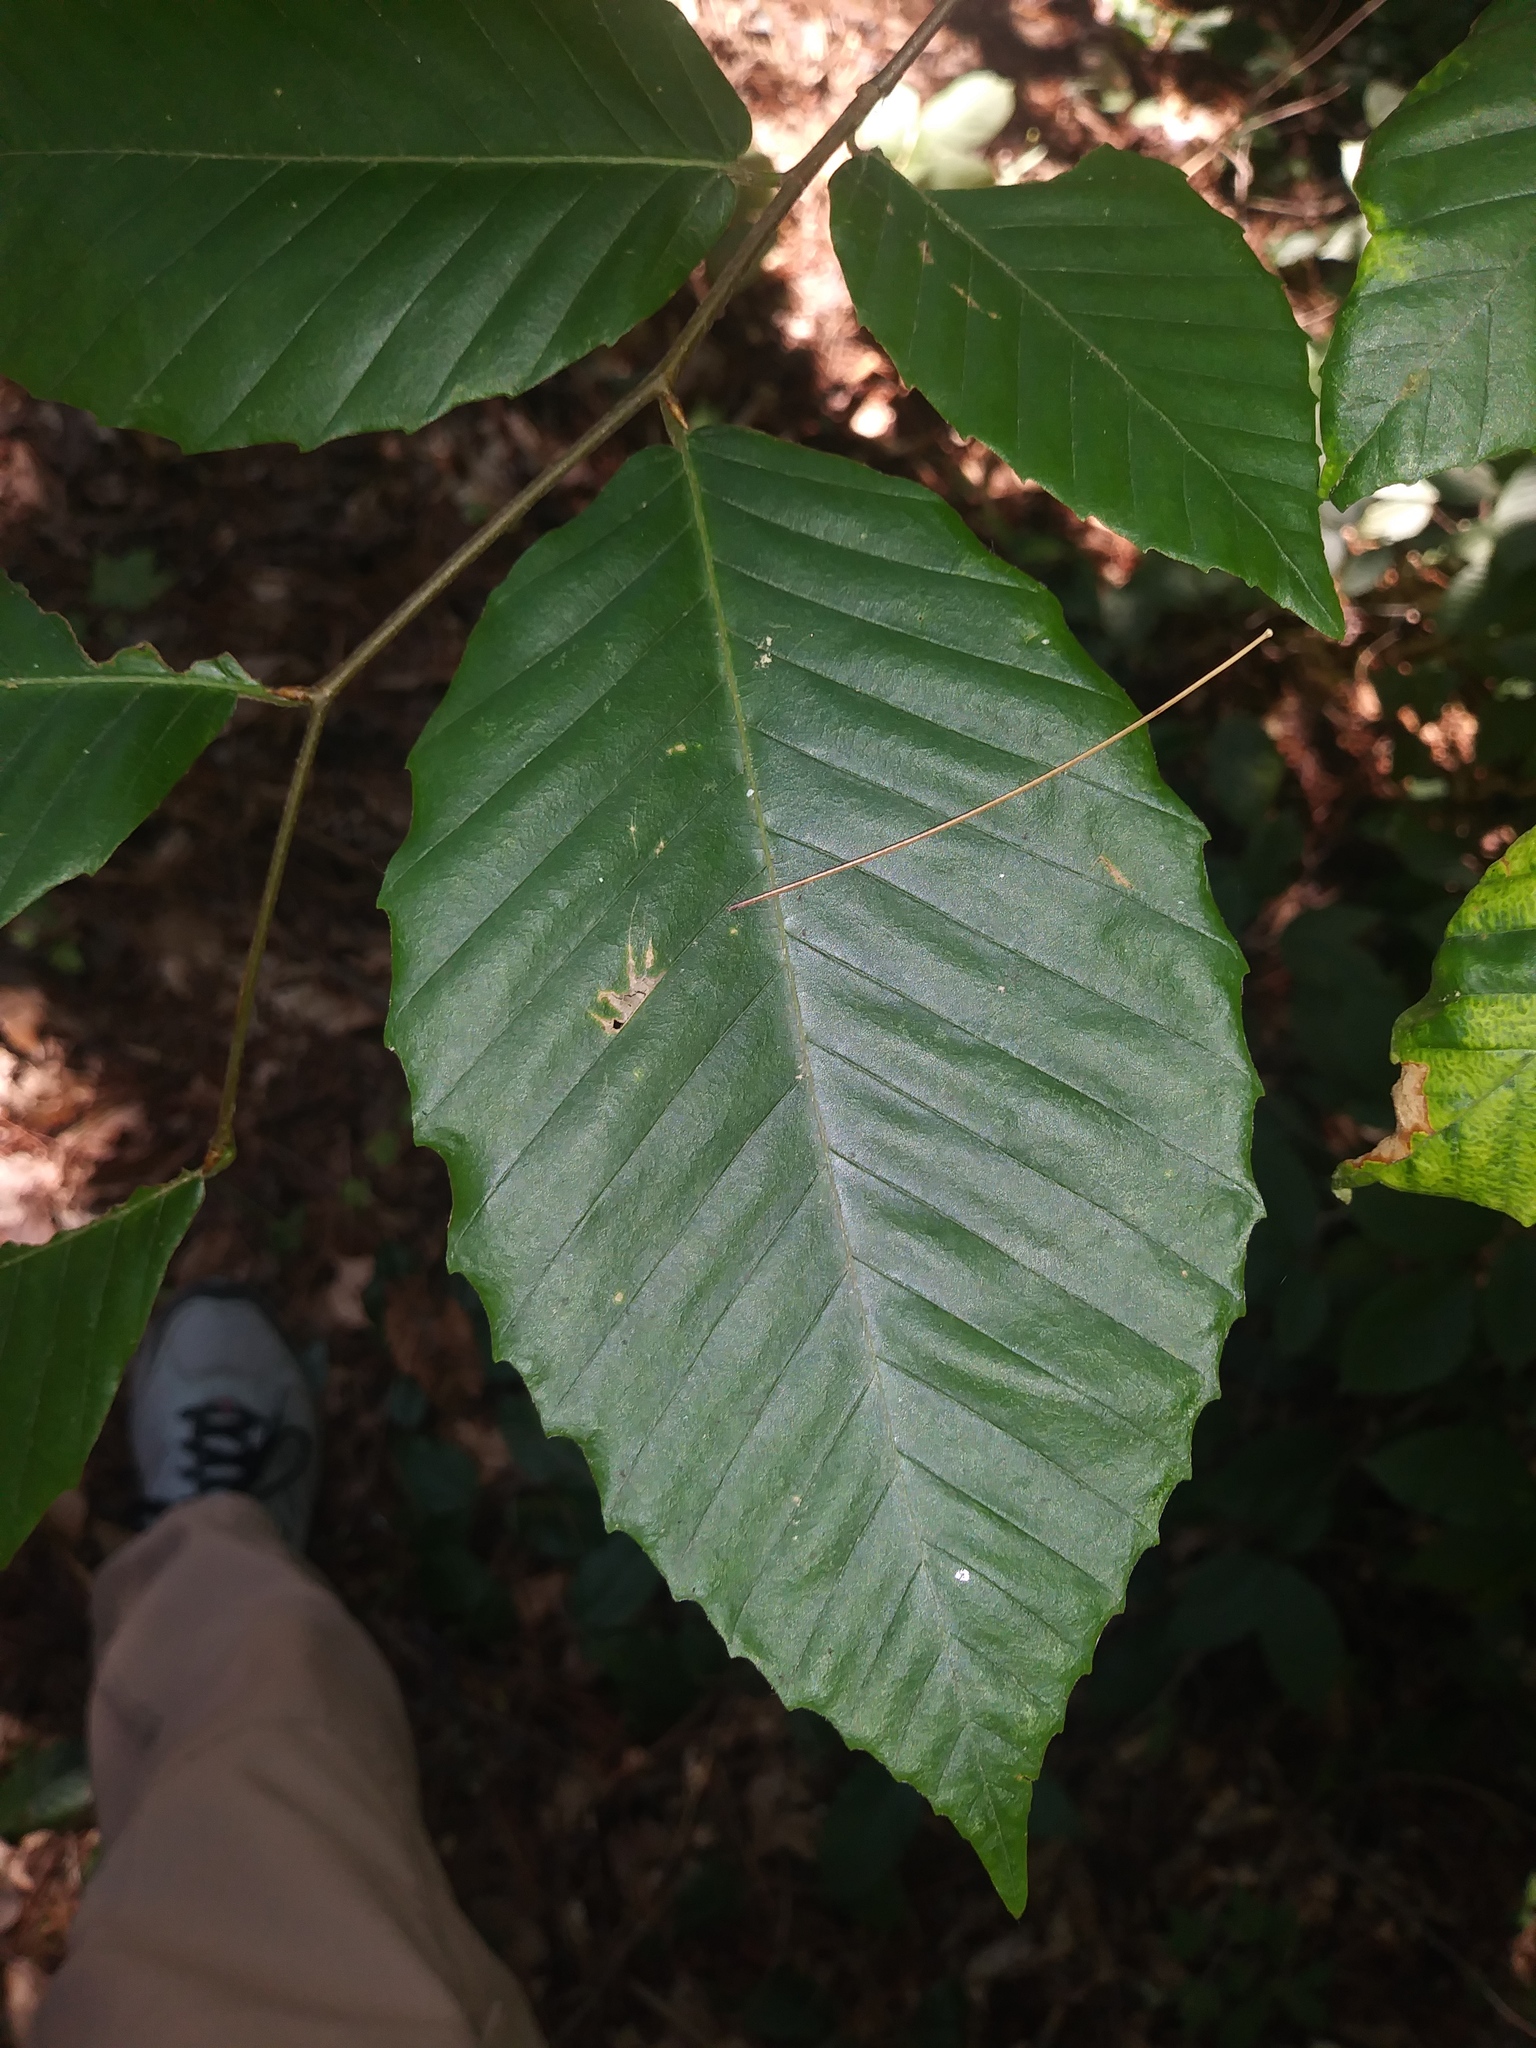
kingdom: Plantae
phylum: Tracheophyta
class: Magnoliopsida
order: Fagales
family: Fagaceae
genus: Fagus
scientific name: Fagus grandifolia
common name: American beech
